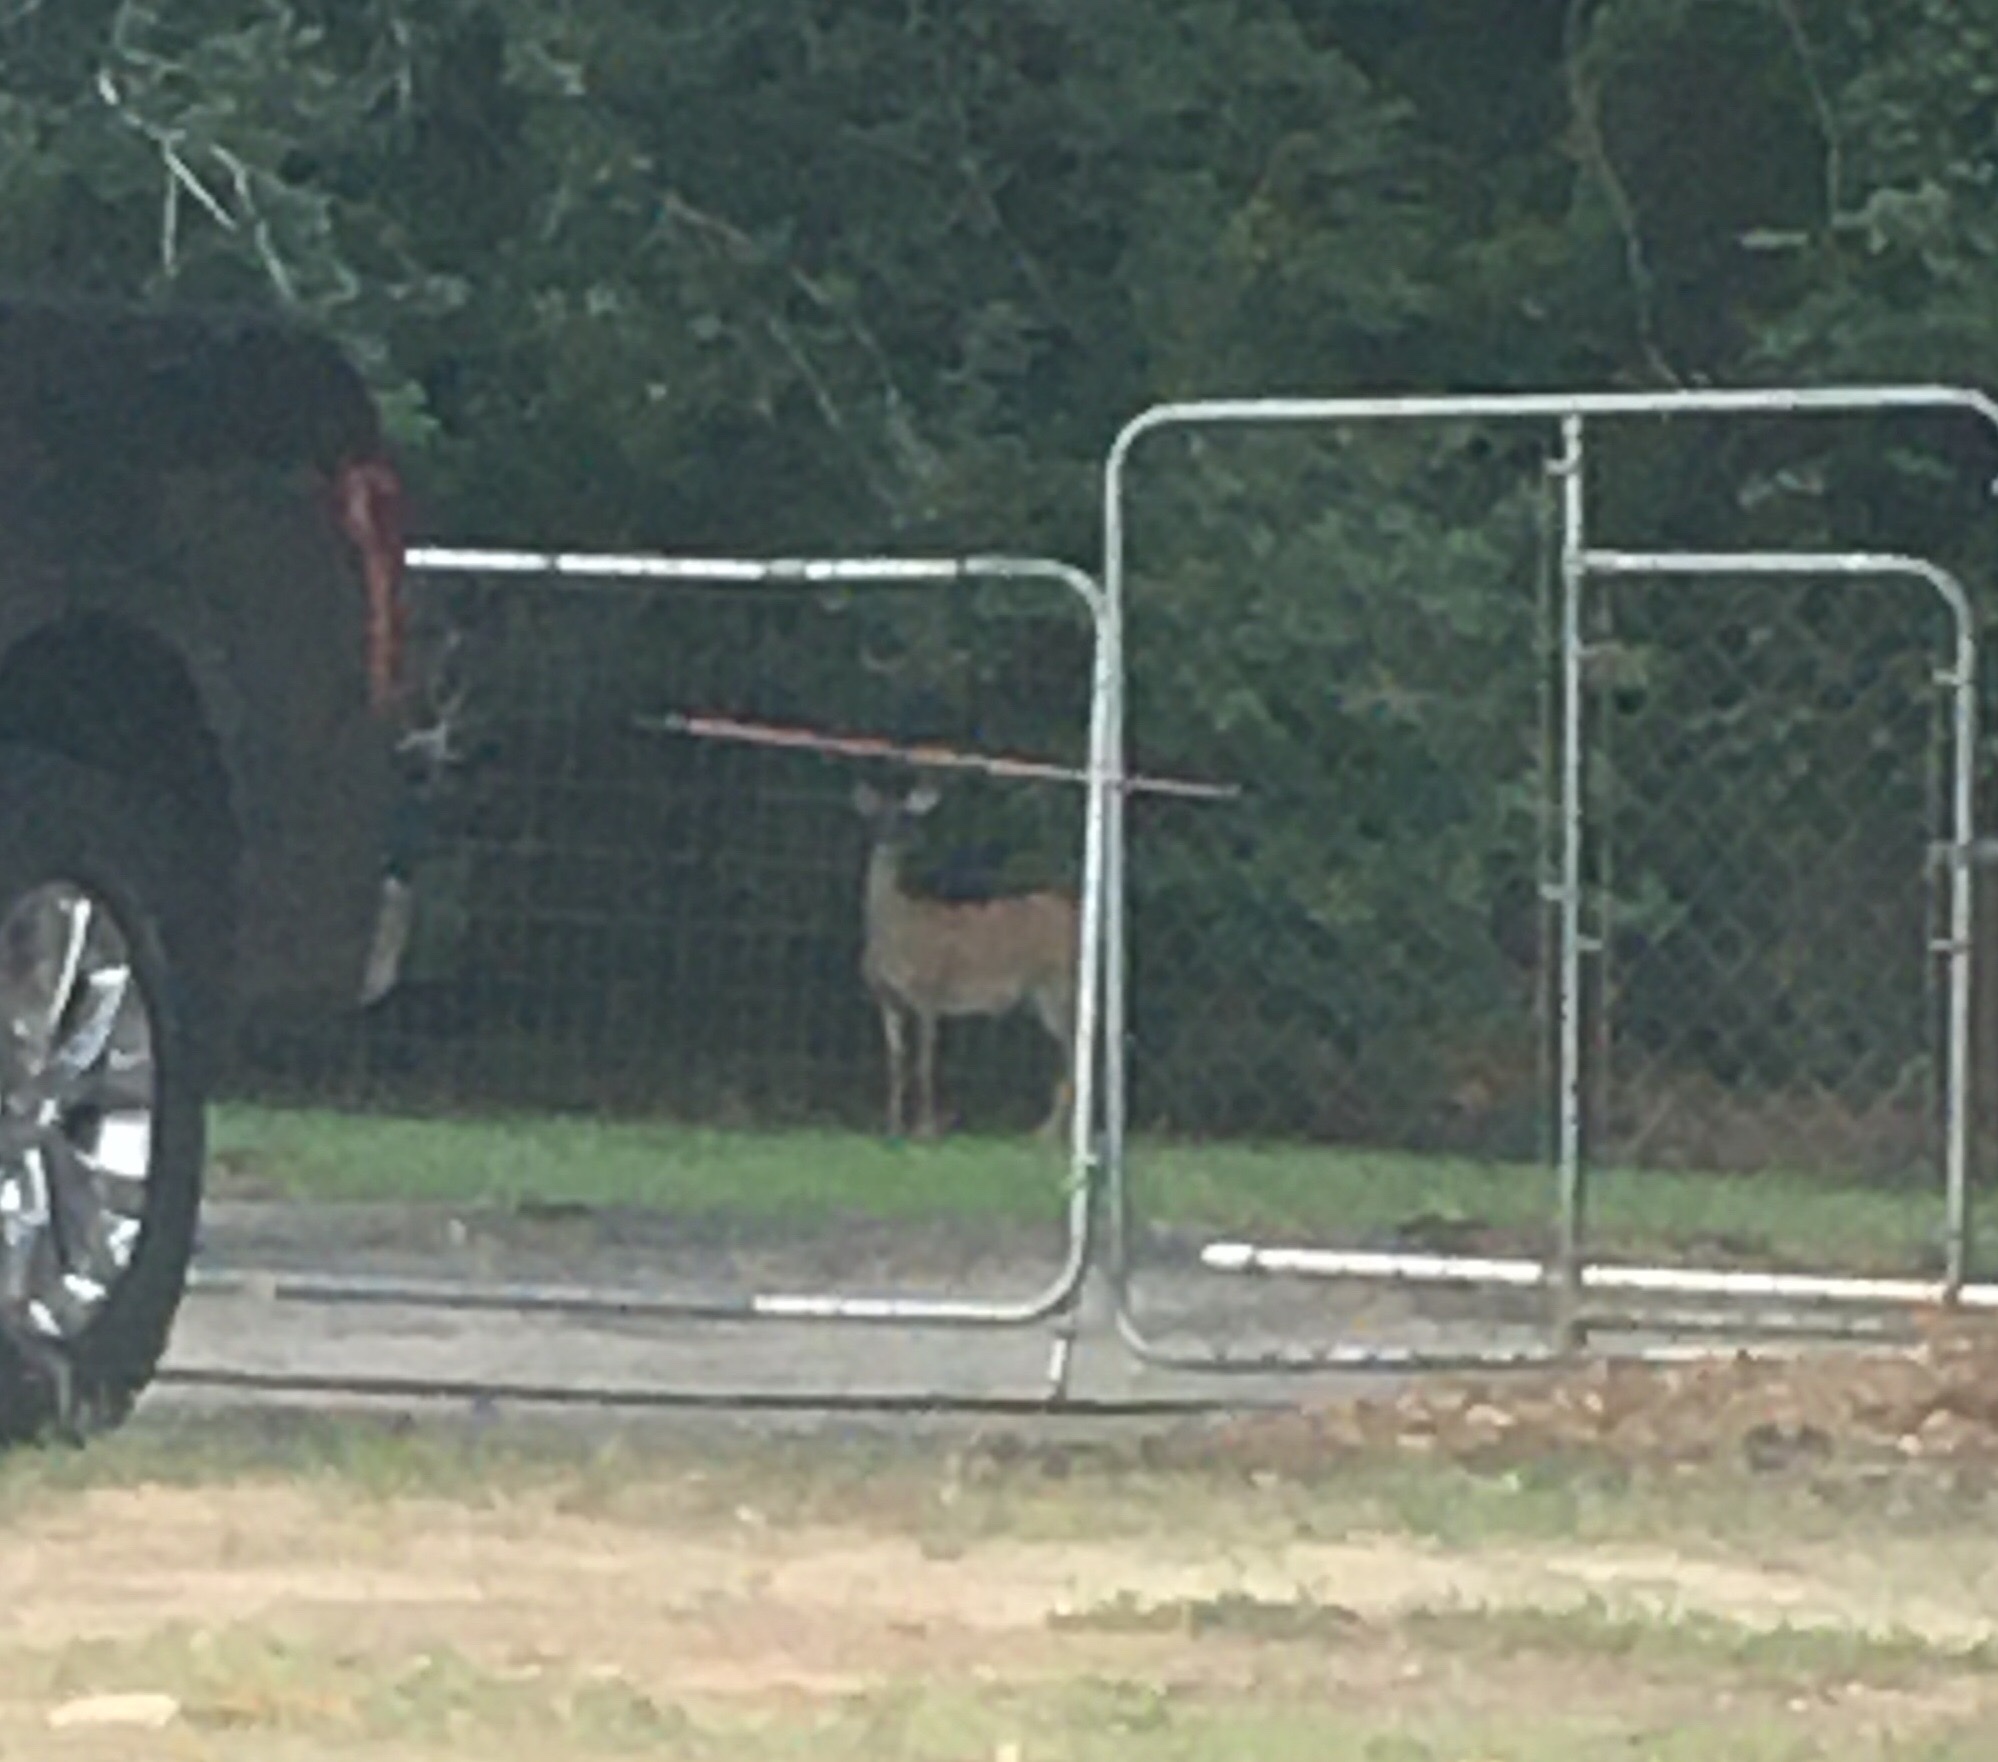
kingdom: Animalia
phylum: Chordata
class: Mammalia
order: Artiodactyla
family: Cervidae
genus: Odocoileus
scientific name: Odocoileus virginianus
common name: White-tailed deer
